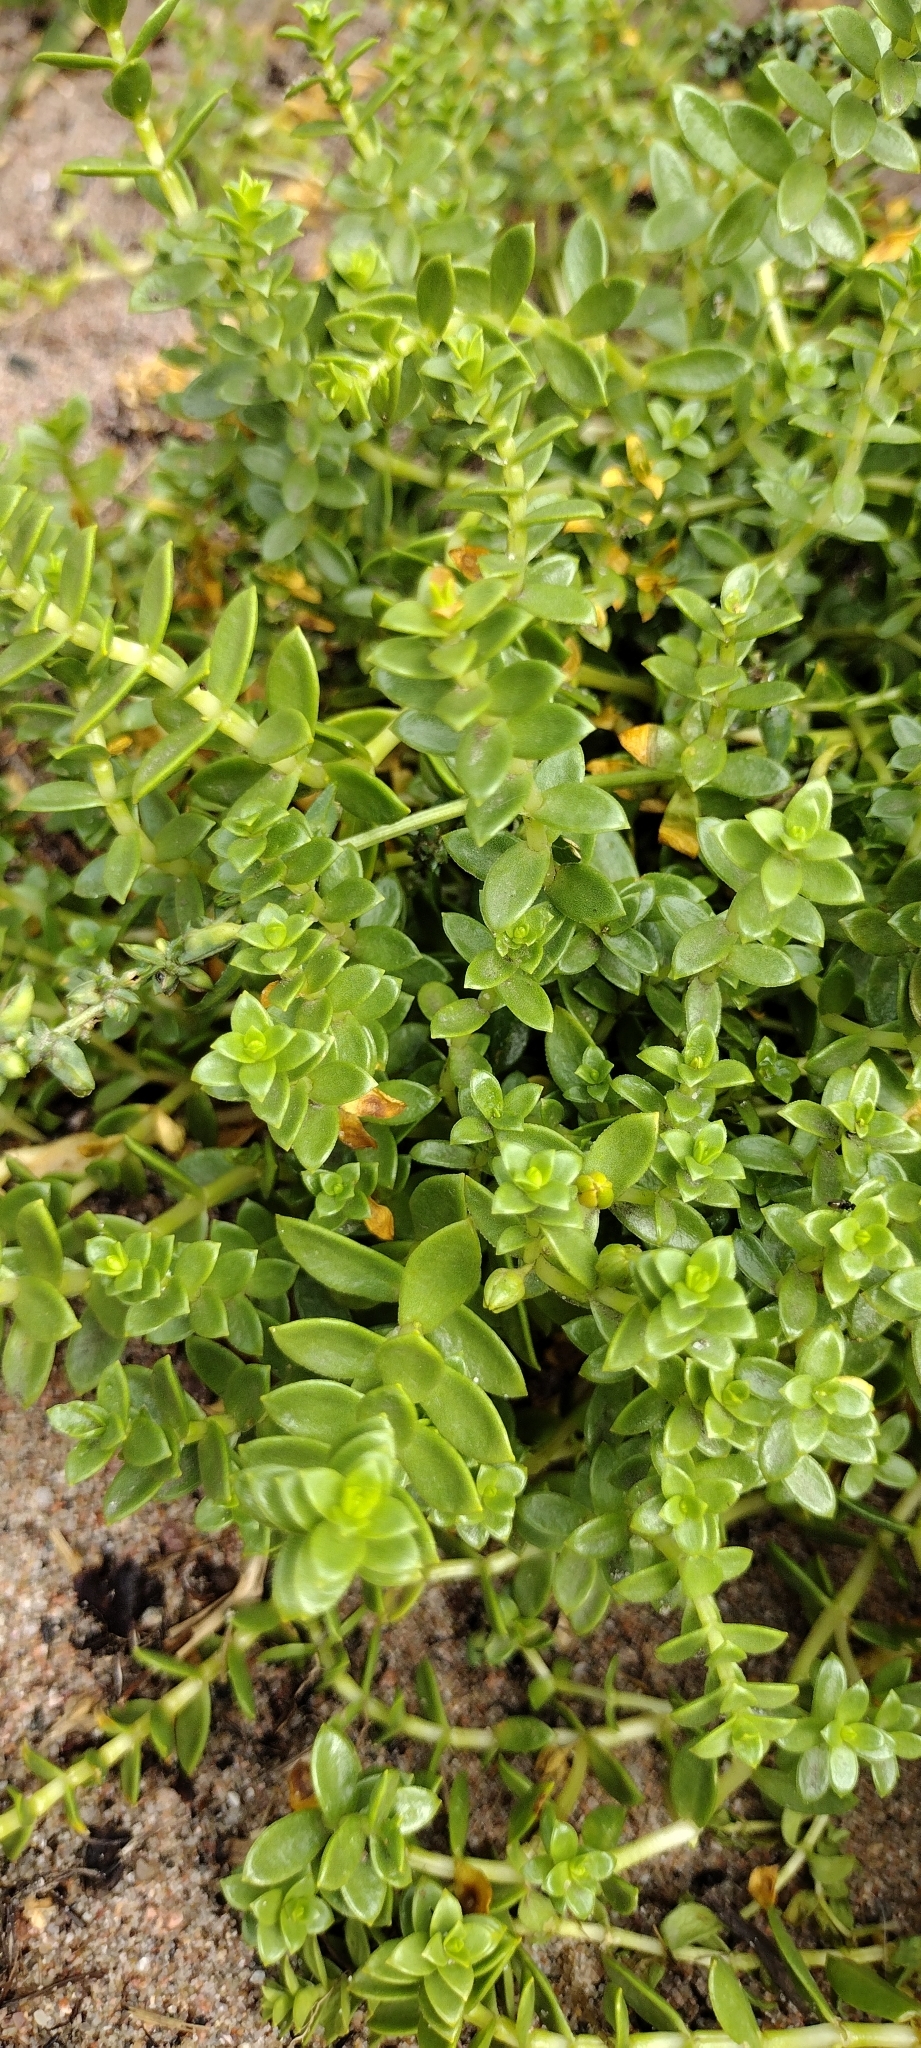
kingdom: Plantae
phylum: Tracheophyta
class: Magnoliopsida
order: Caryophyllales
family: Caryophyllaceae
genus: Honckenya
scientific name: Honckenya peploides
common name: Sea sandwort
